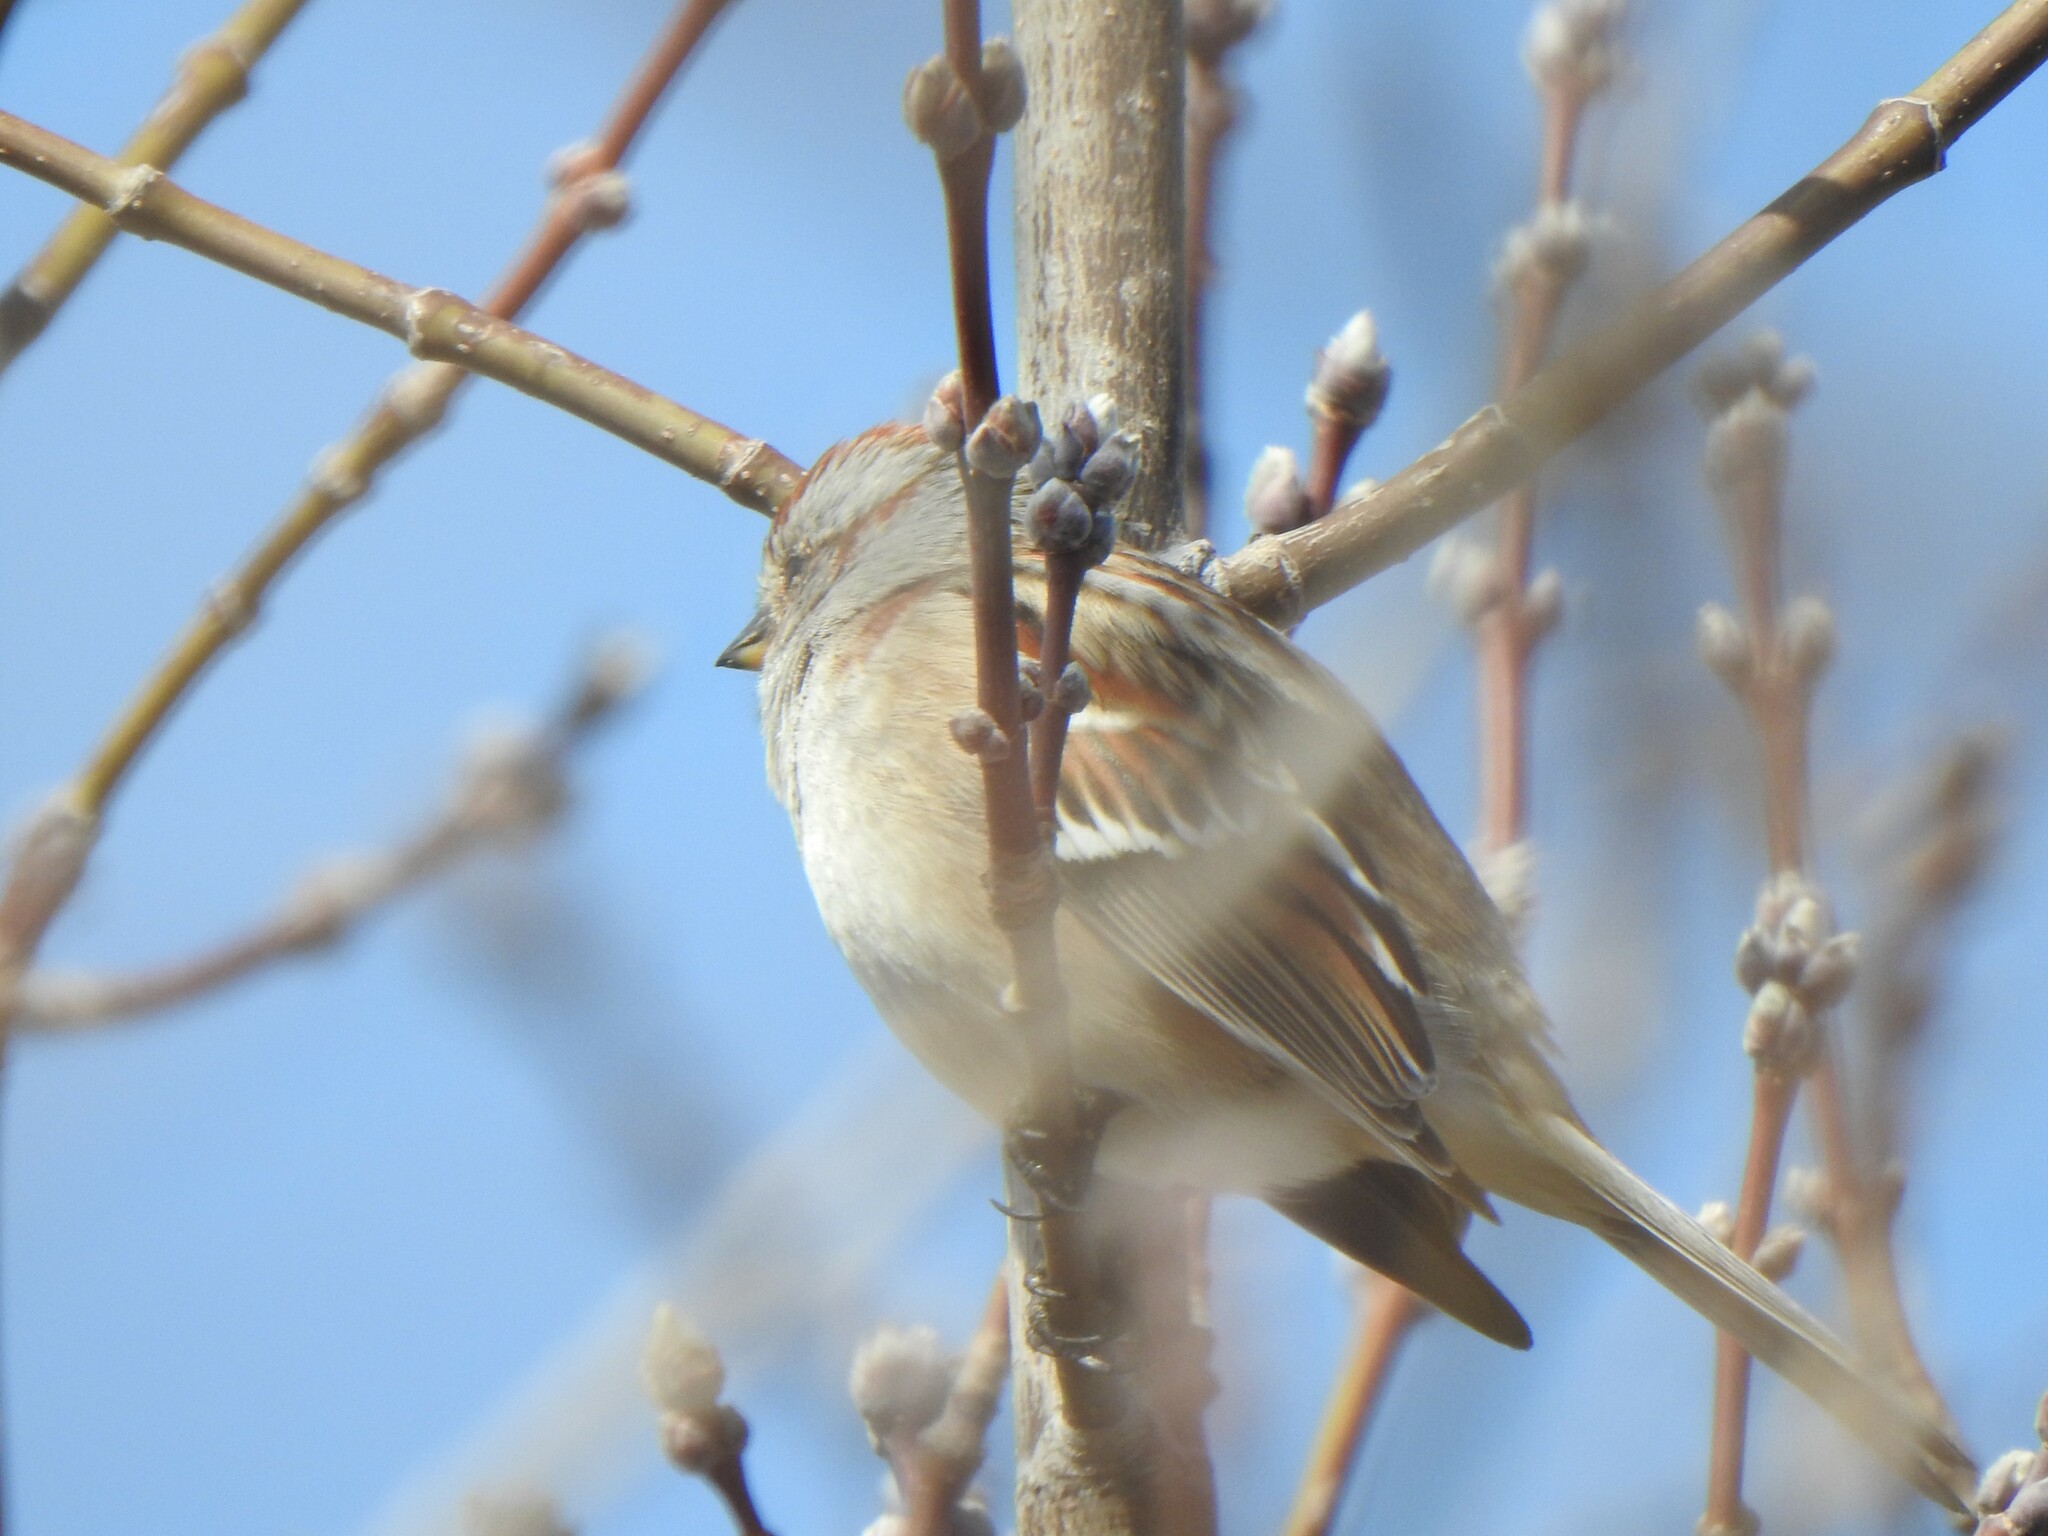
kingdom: Animalia
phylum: Chordata
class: Aves
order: Passeriformes
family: Passerellidae
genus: Spizelloides
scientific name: Spizelloides arborea
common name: American tree sparrow
